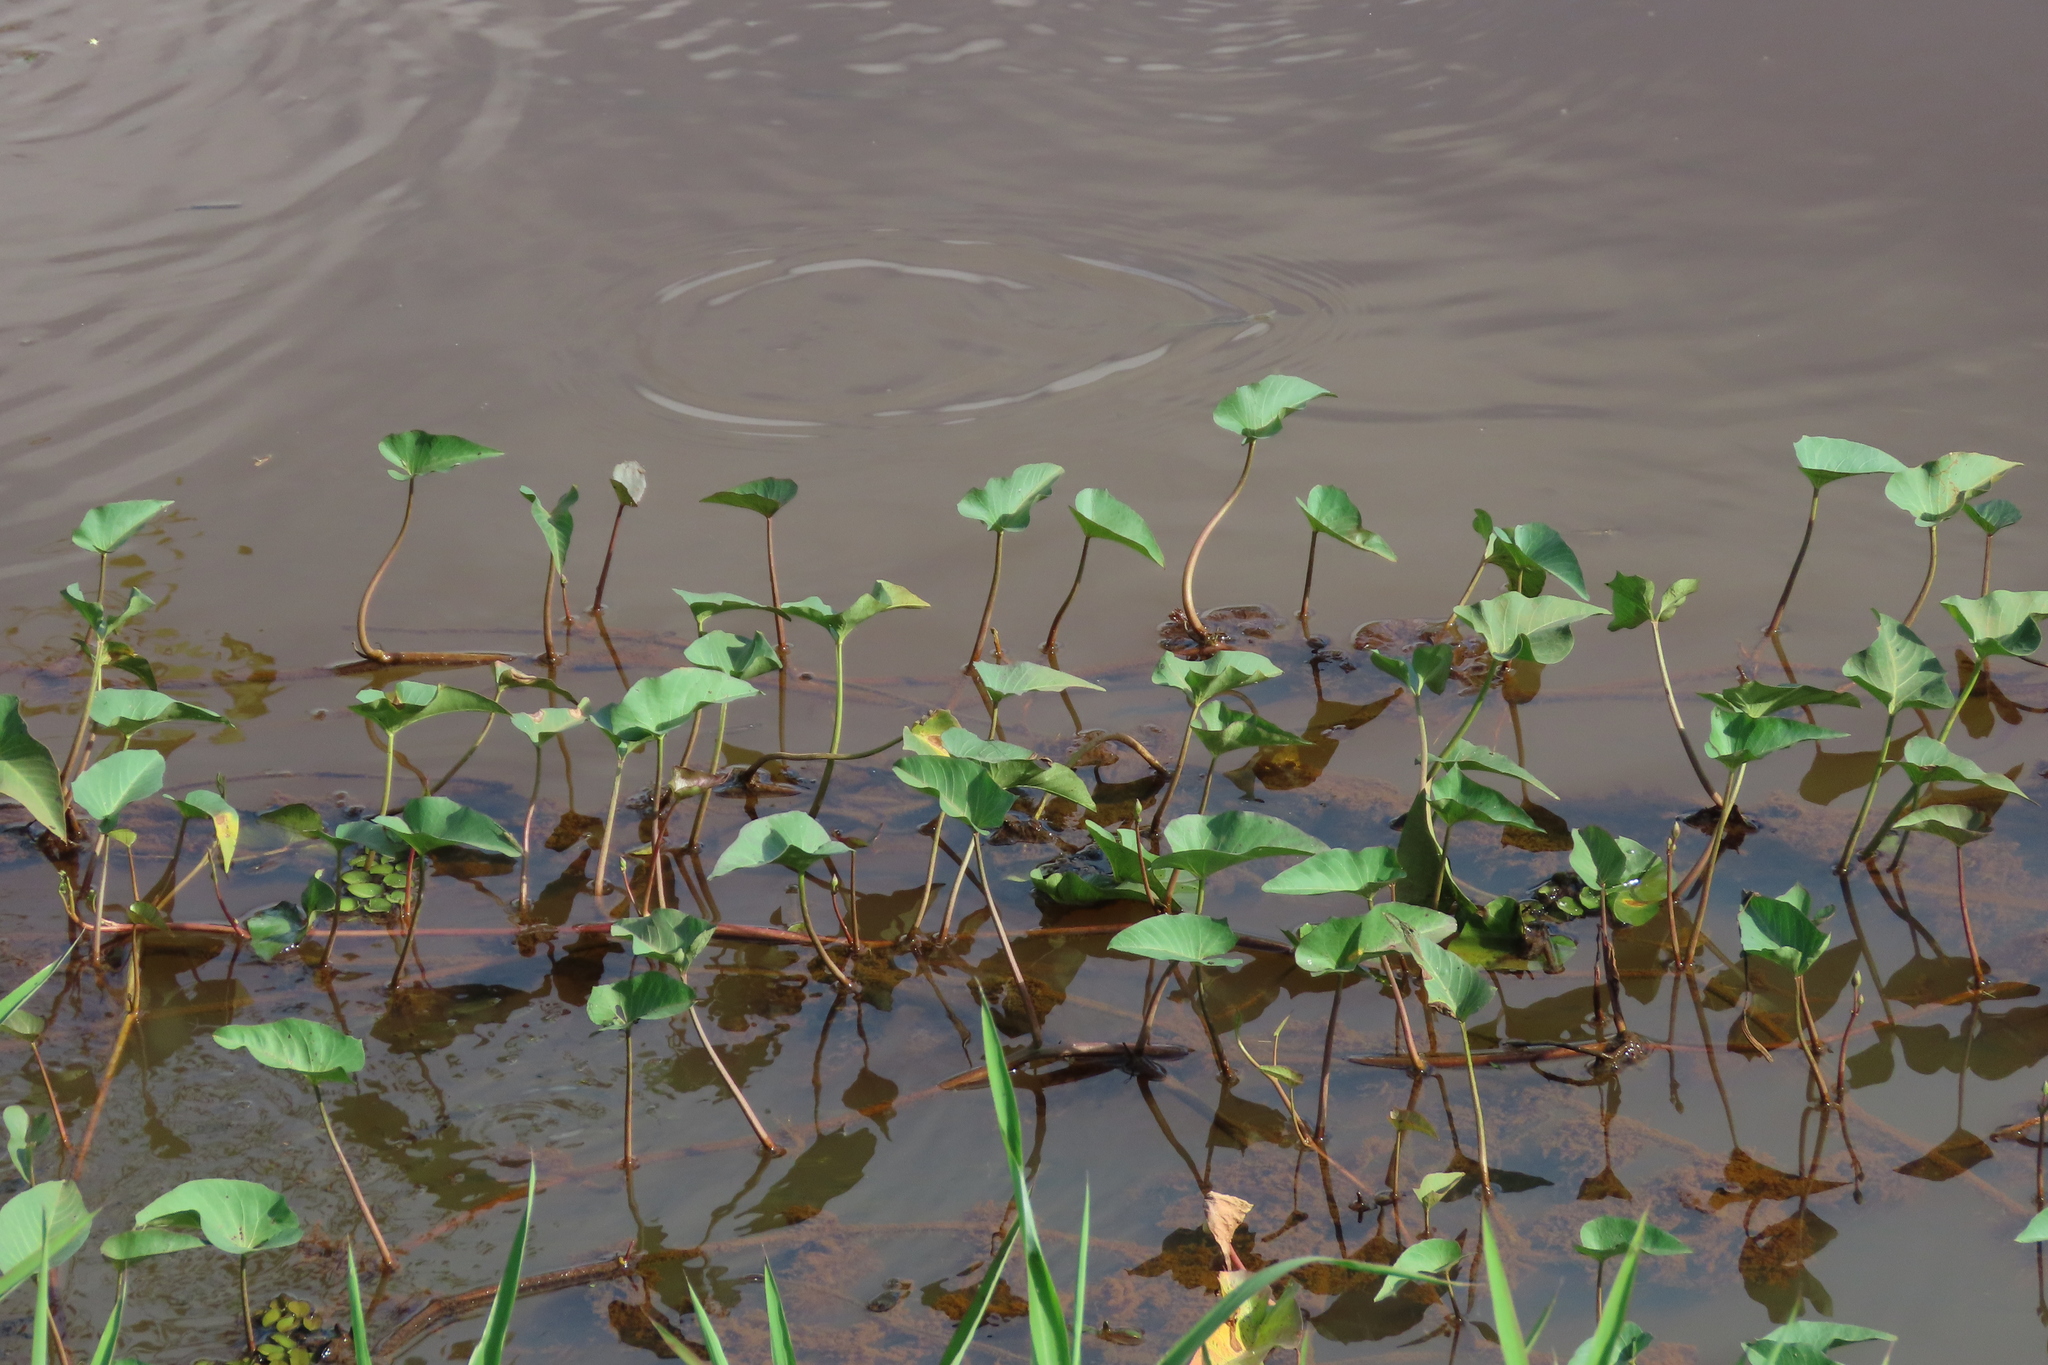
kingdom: Plantae
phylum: Tracheophyta
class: Magnoliopsida
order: Solanales
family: Convolvulaceae
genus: Ipomoea
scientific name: Ipomoea aquatica
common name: Swamp morning-glory
